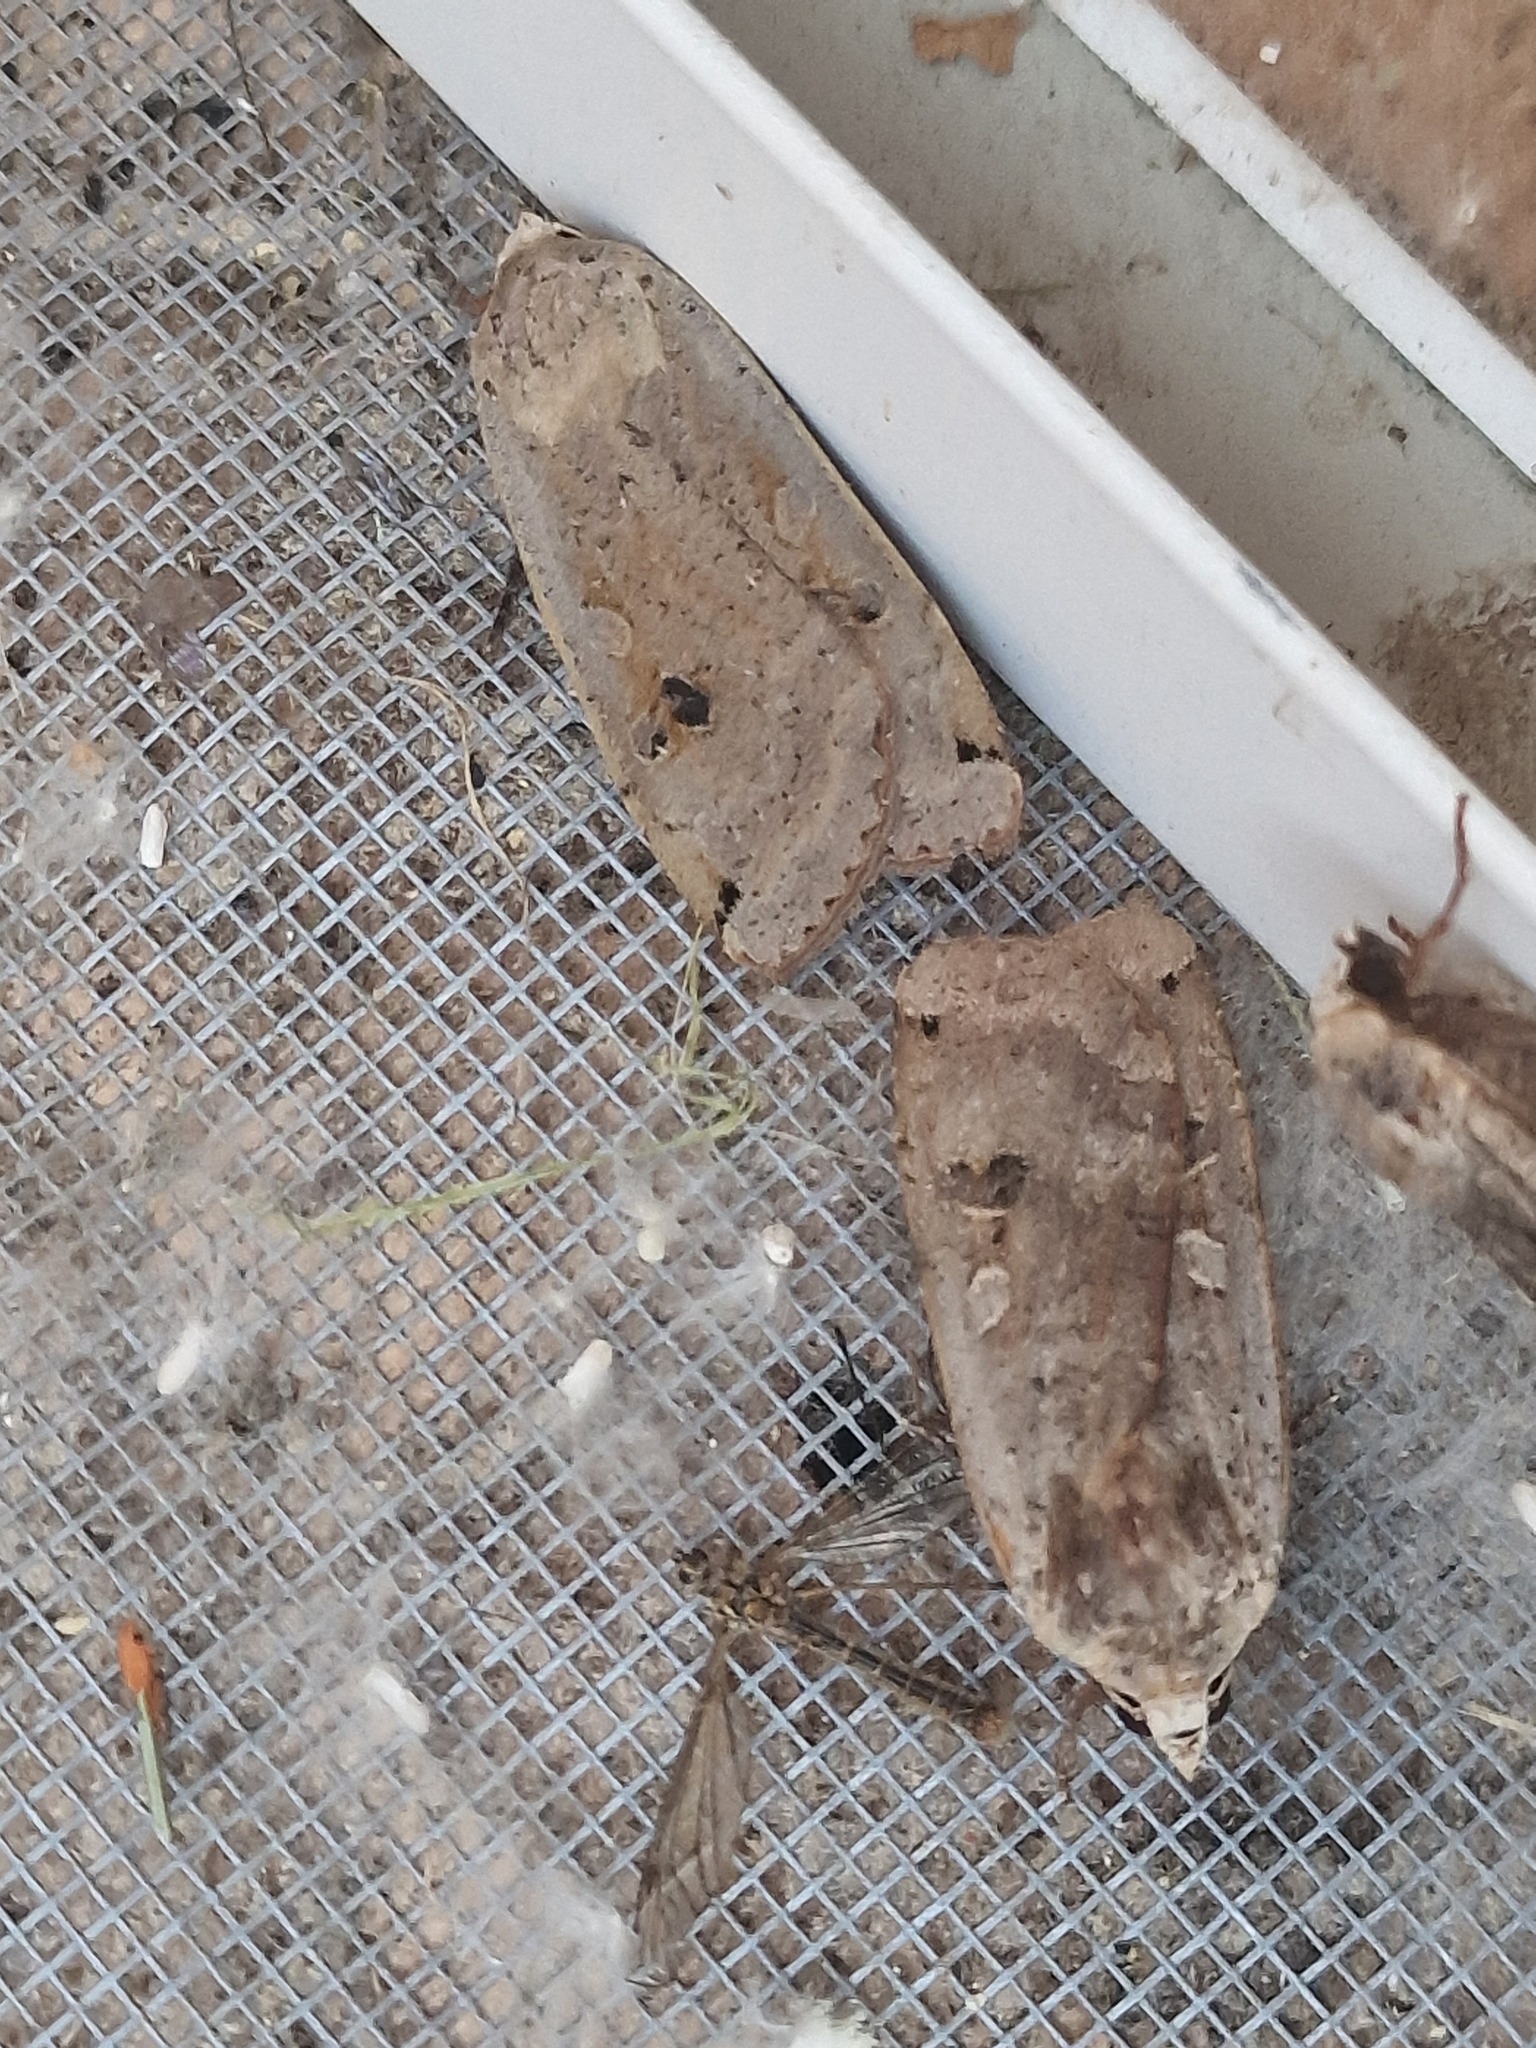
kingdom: Animalia
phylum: Arthropoda
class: Insecta
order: Lepidoptera
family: Noctuidae
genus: Noctua
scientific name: Noctua pronuba
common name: Large yellow underwing
